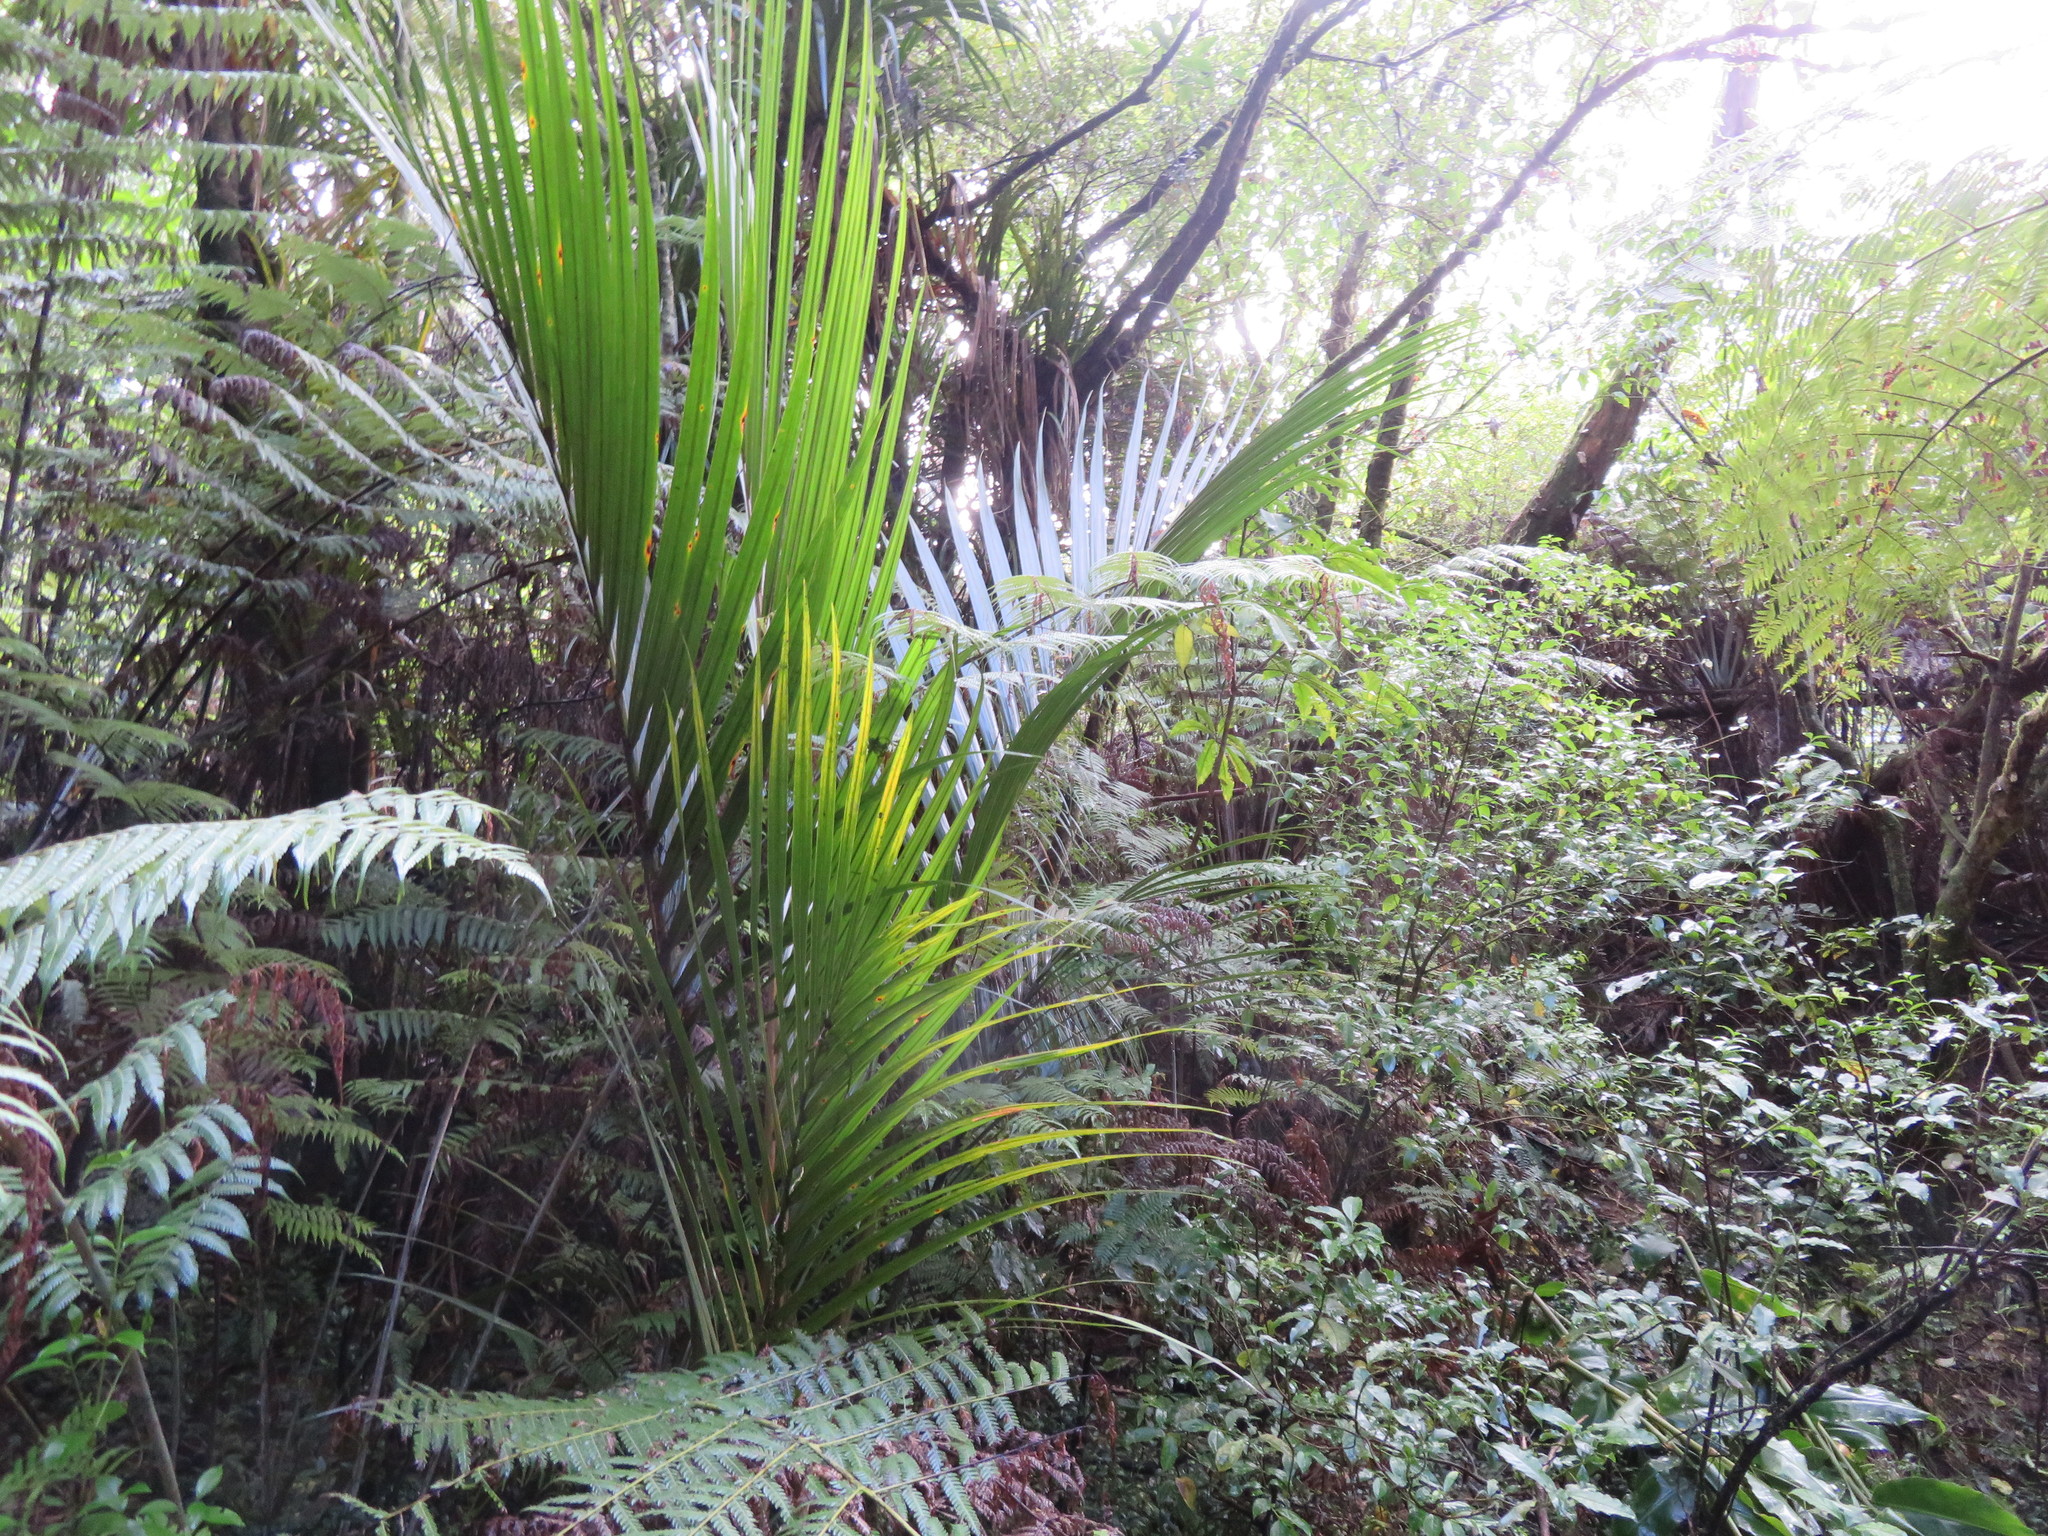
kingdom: Plantae
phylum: Tracheophyta
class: Liliopsida
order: Arecales
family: Arecaceae
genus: Rhopalostylis
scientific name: Rhopalostylis sapida
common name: Feather-duster palm
